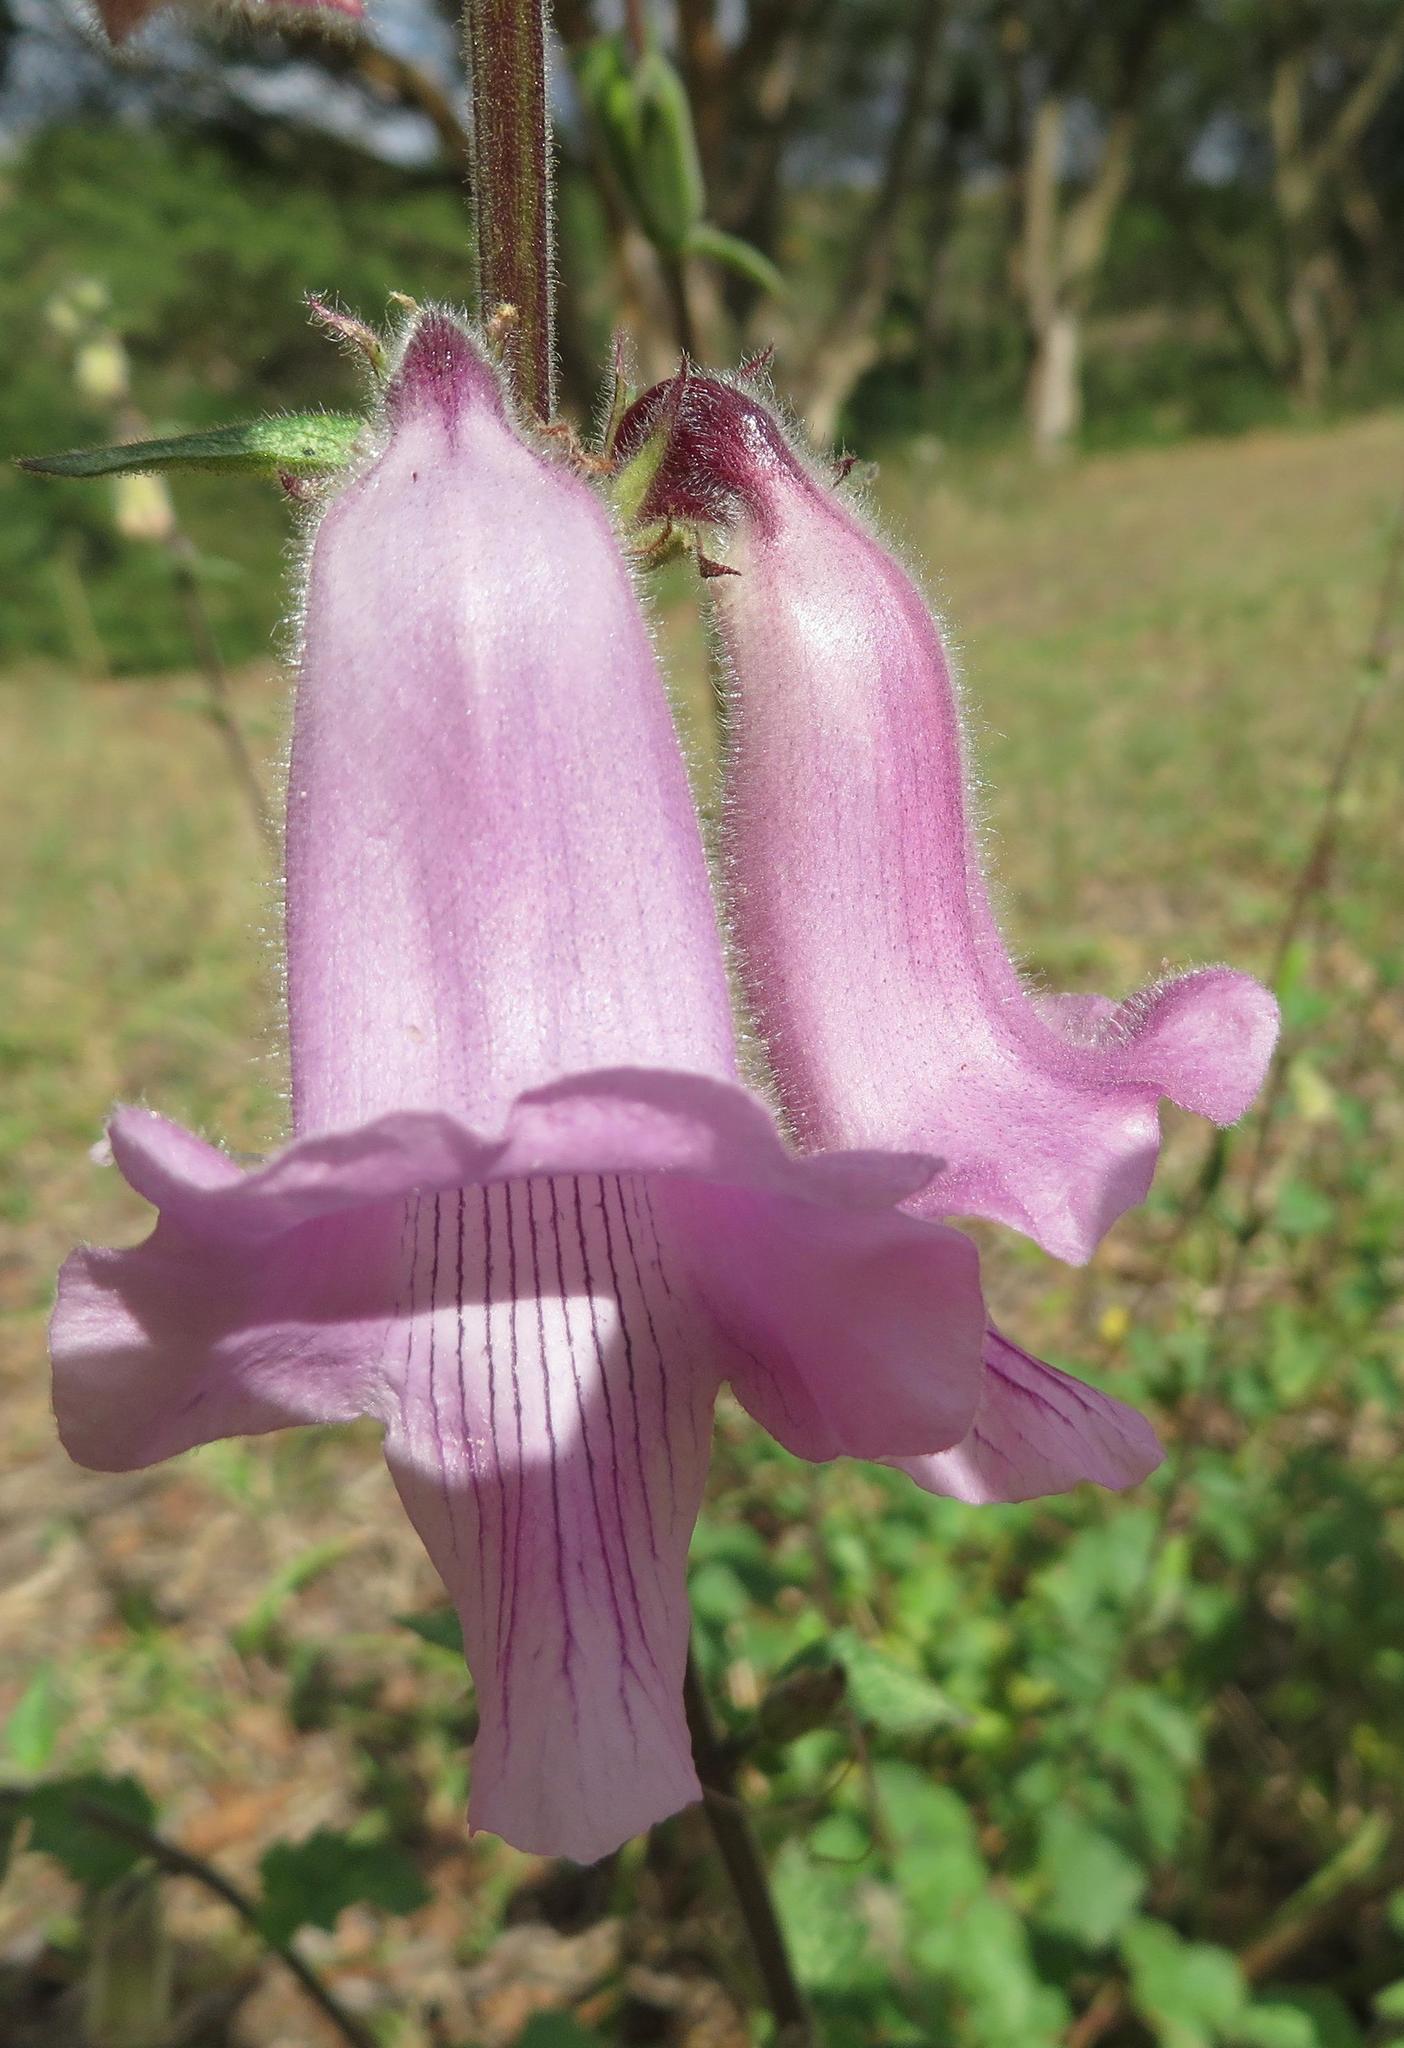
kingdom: Plantae
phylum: Tracheophyta
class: Magnoliopsida
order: Lamiales
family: Pedaliaceae
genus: Sesamum
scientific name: Sesamum trilobum
